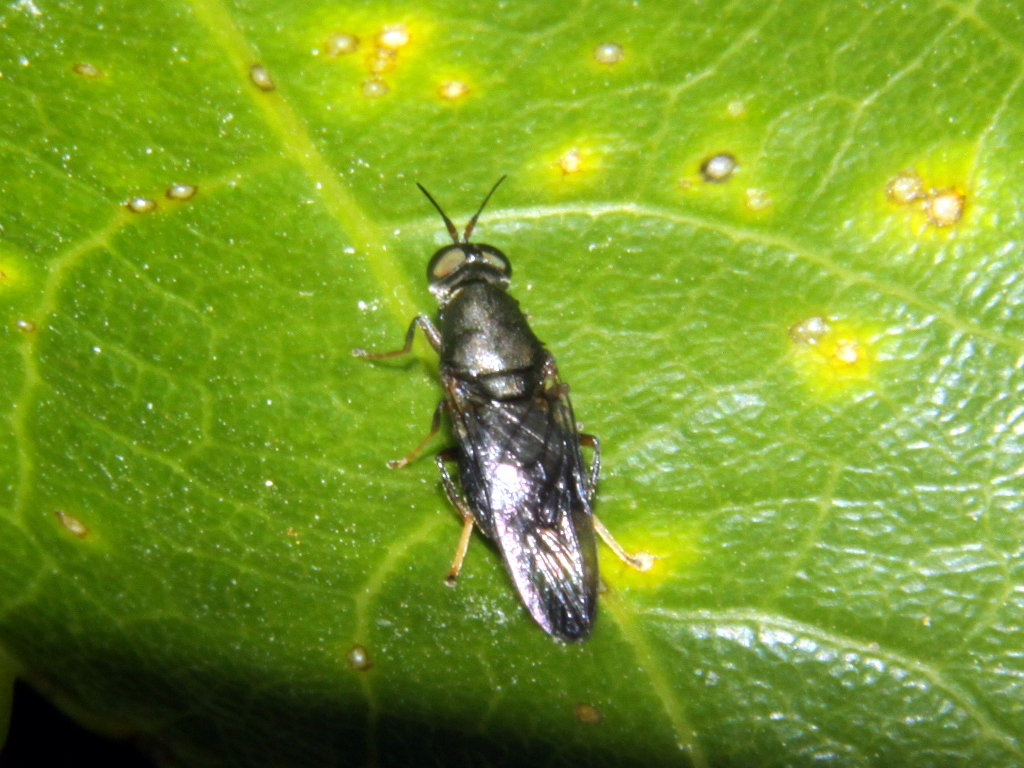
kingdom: Animalia
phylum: Arthropoda
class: Insecta
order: Diptera
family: Stratiomyidae
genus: Dysbiota
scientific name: Dysbiota peregrina
